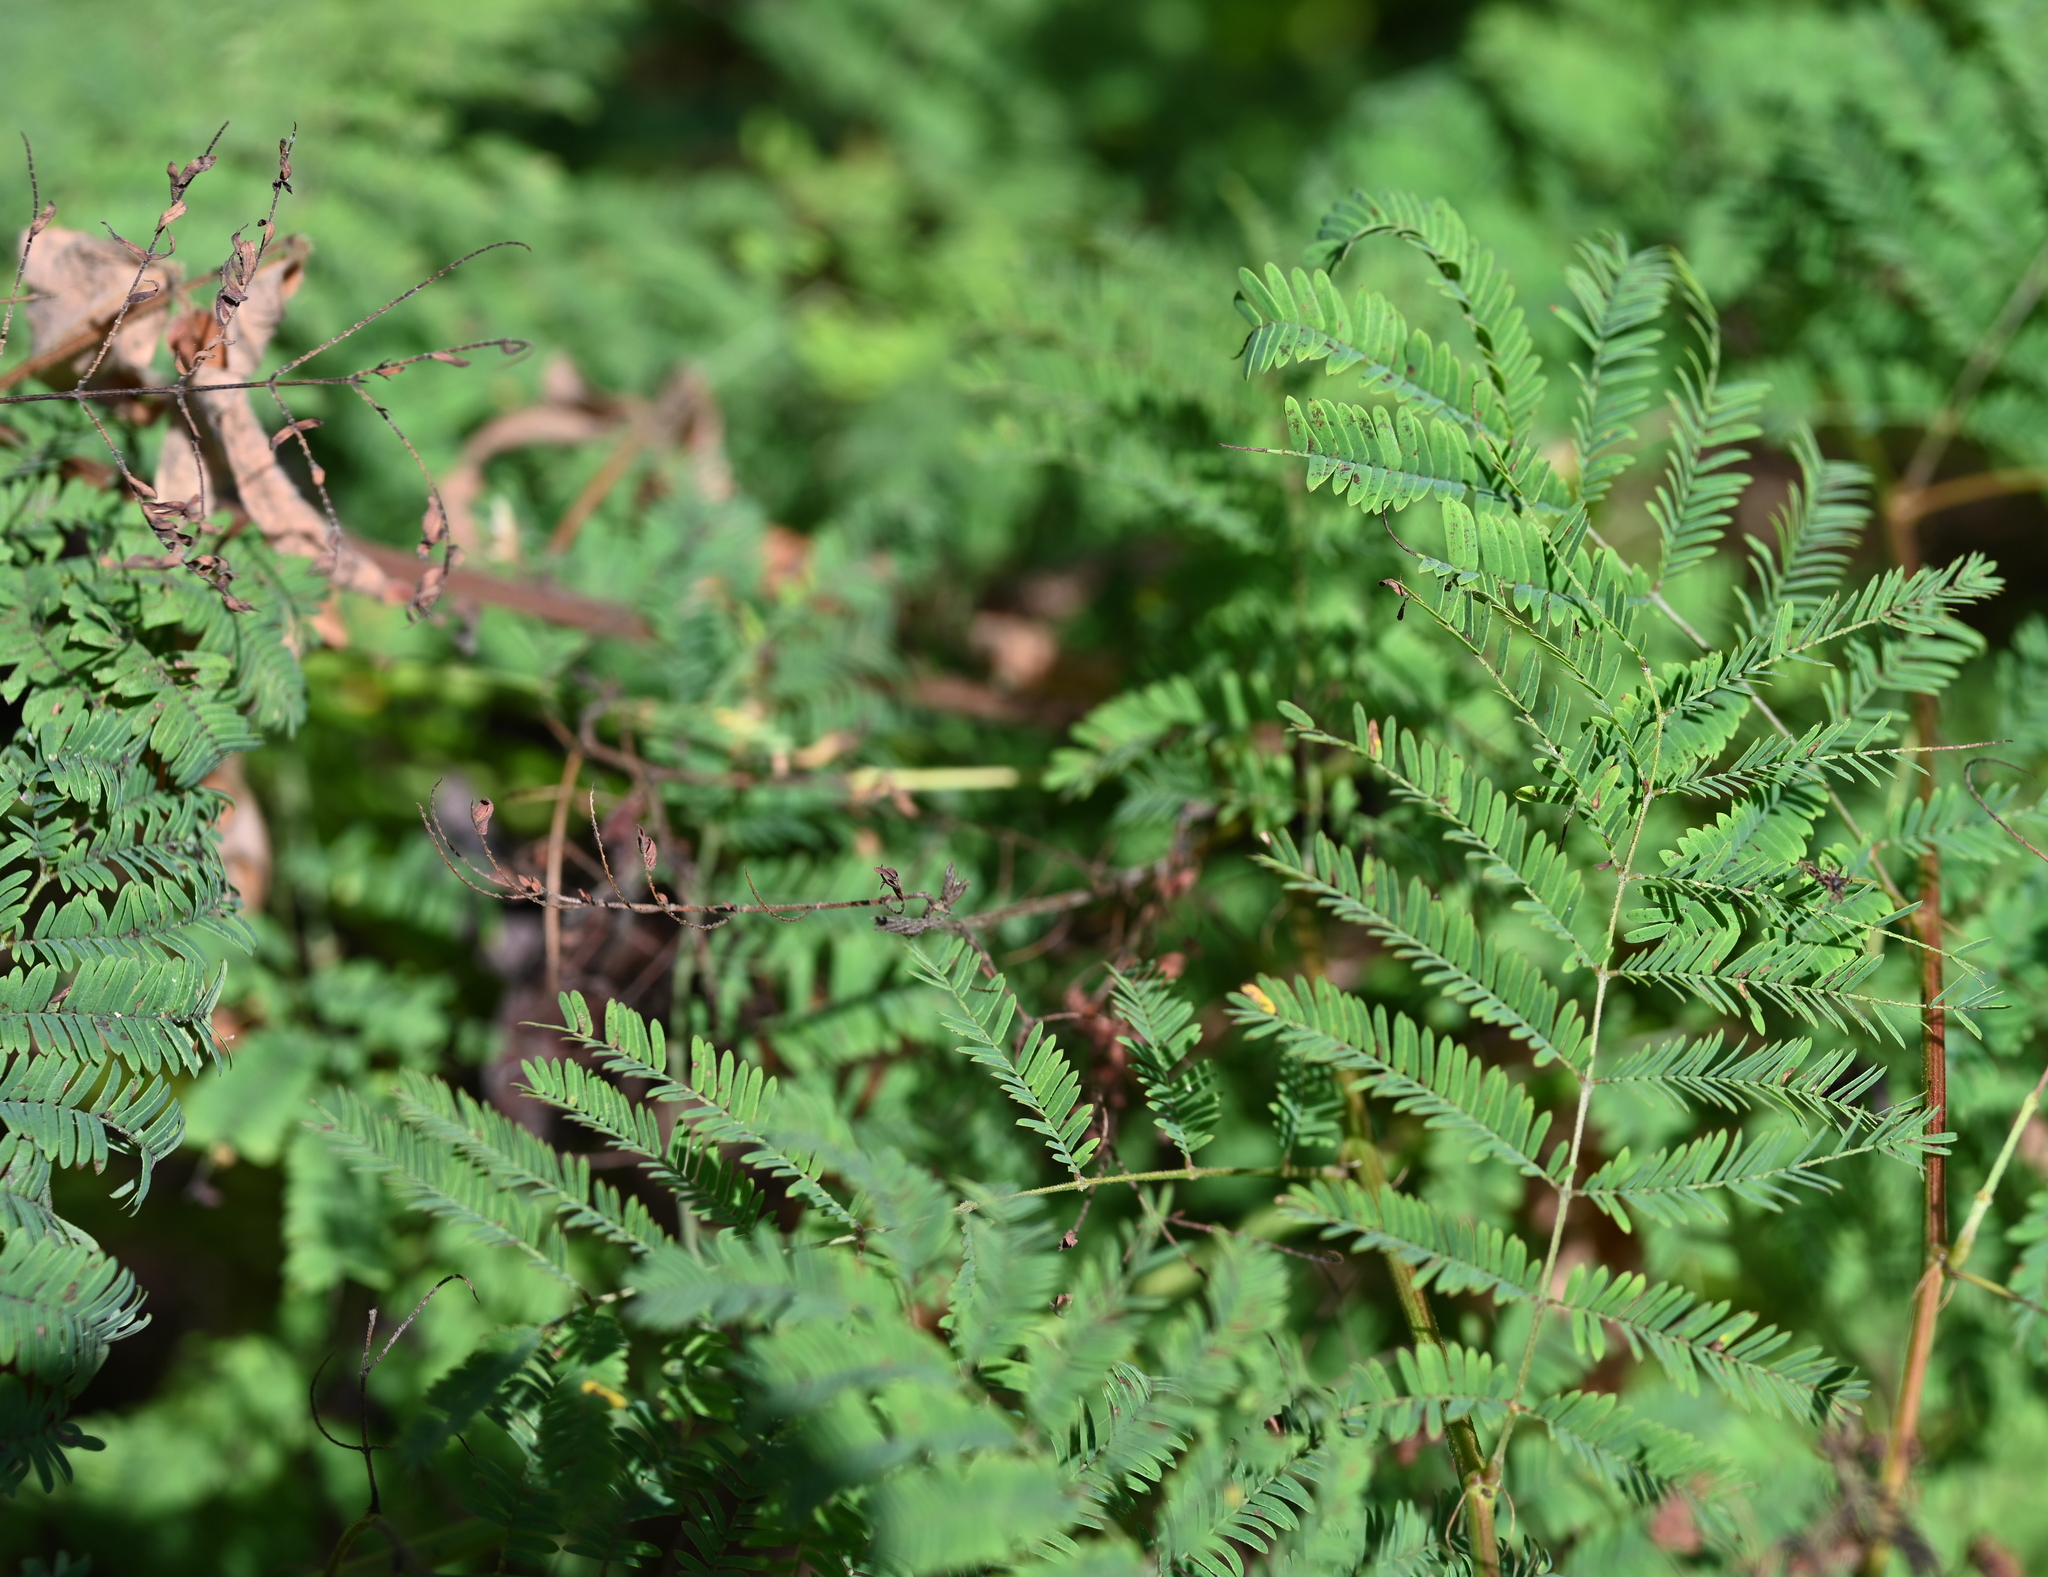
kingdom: Plantae
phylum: Tracheophyta
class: Magnoliopsida
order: Fabales
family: Fabaceae
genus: Desmanthus
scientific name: Desmanthus illinoensis
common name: Illinois bundle-flower
